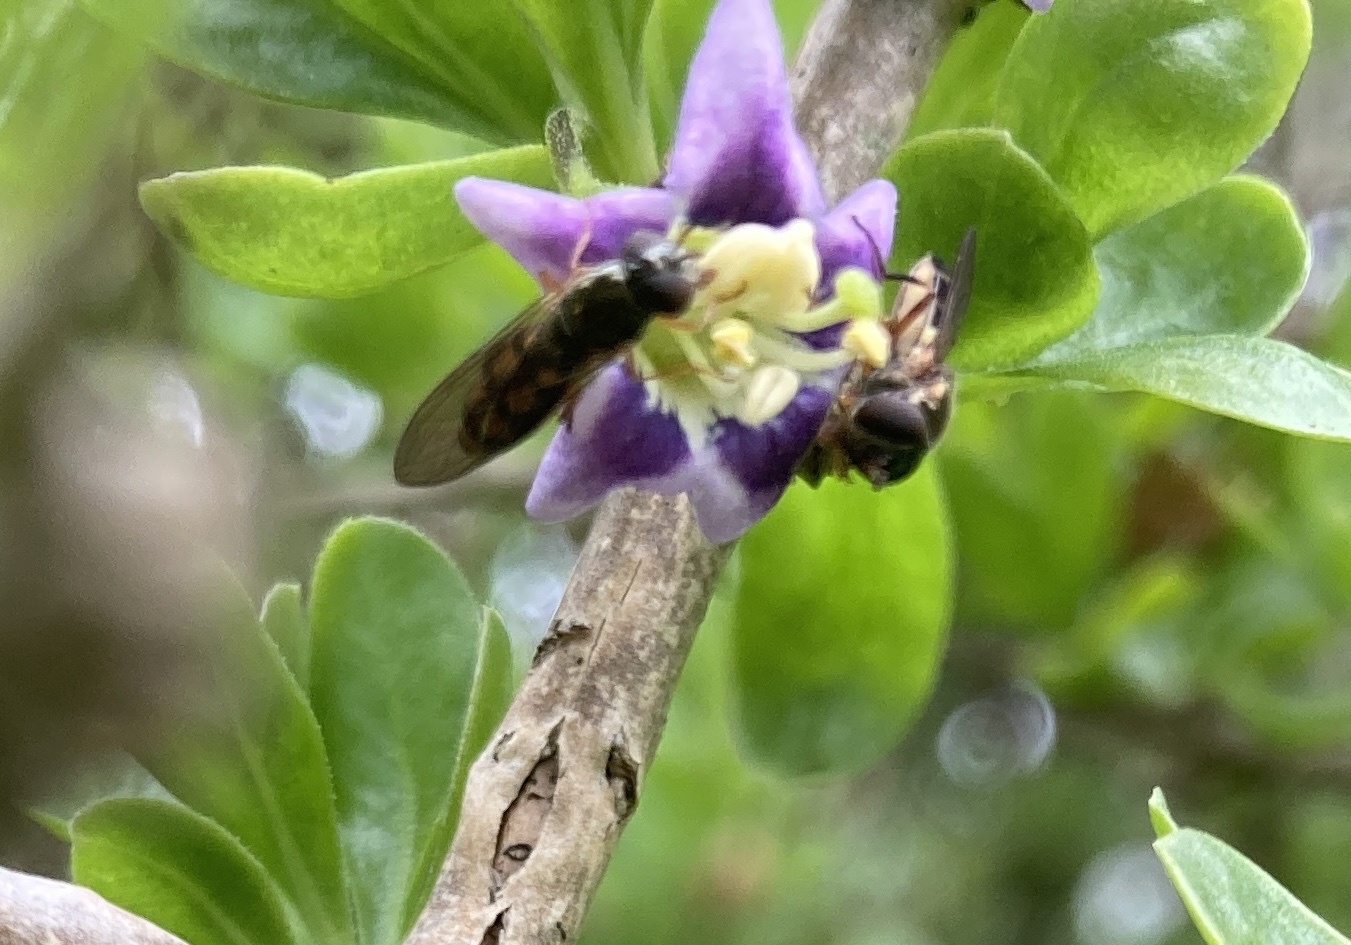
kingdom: Animalia
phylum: Arthropoda
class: Insecta
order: Diptera
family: Syrphidae
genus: Melanostoma
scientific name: Melanostoma fasciatum
